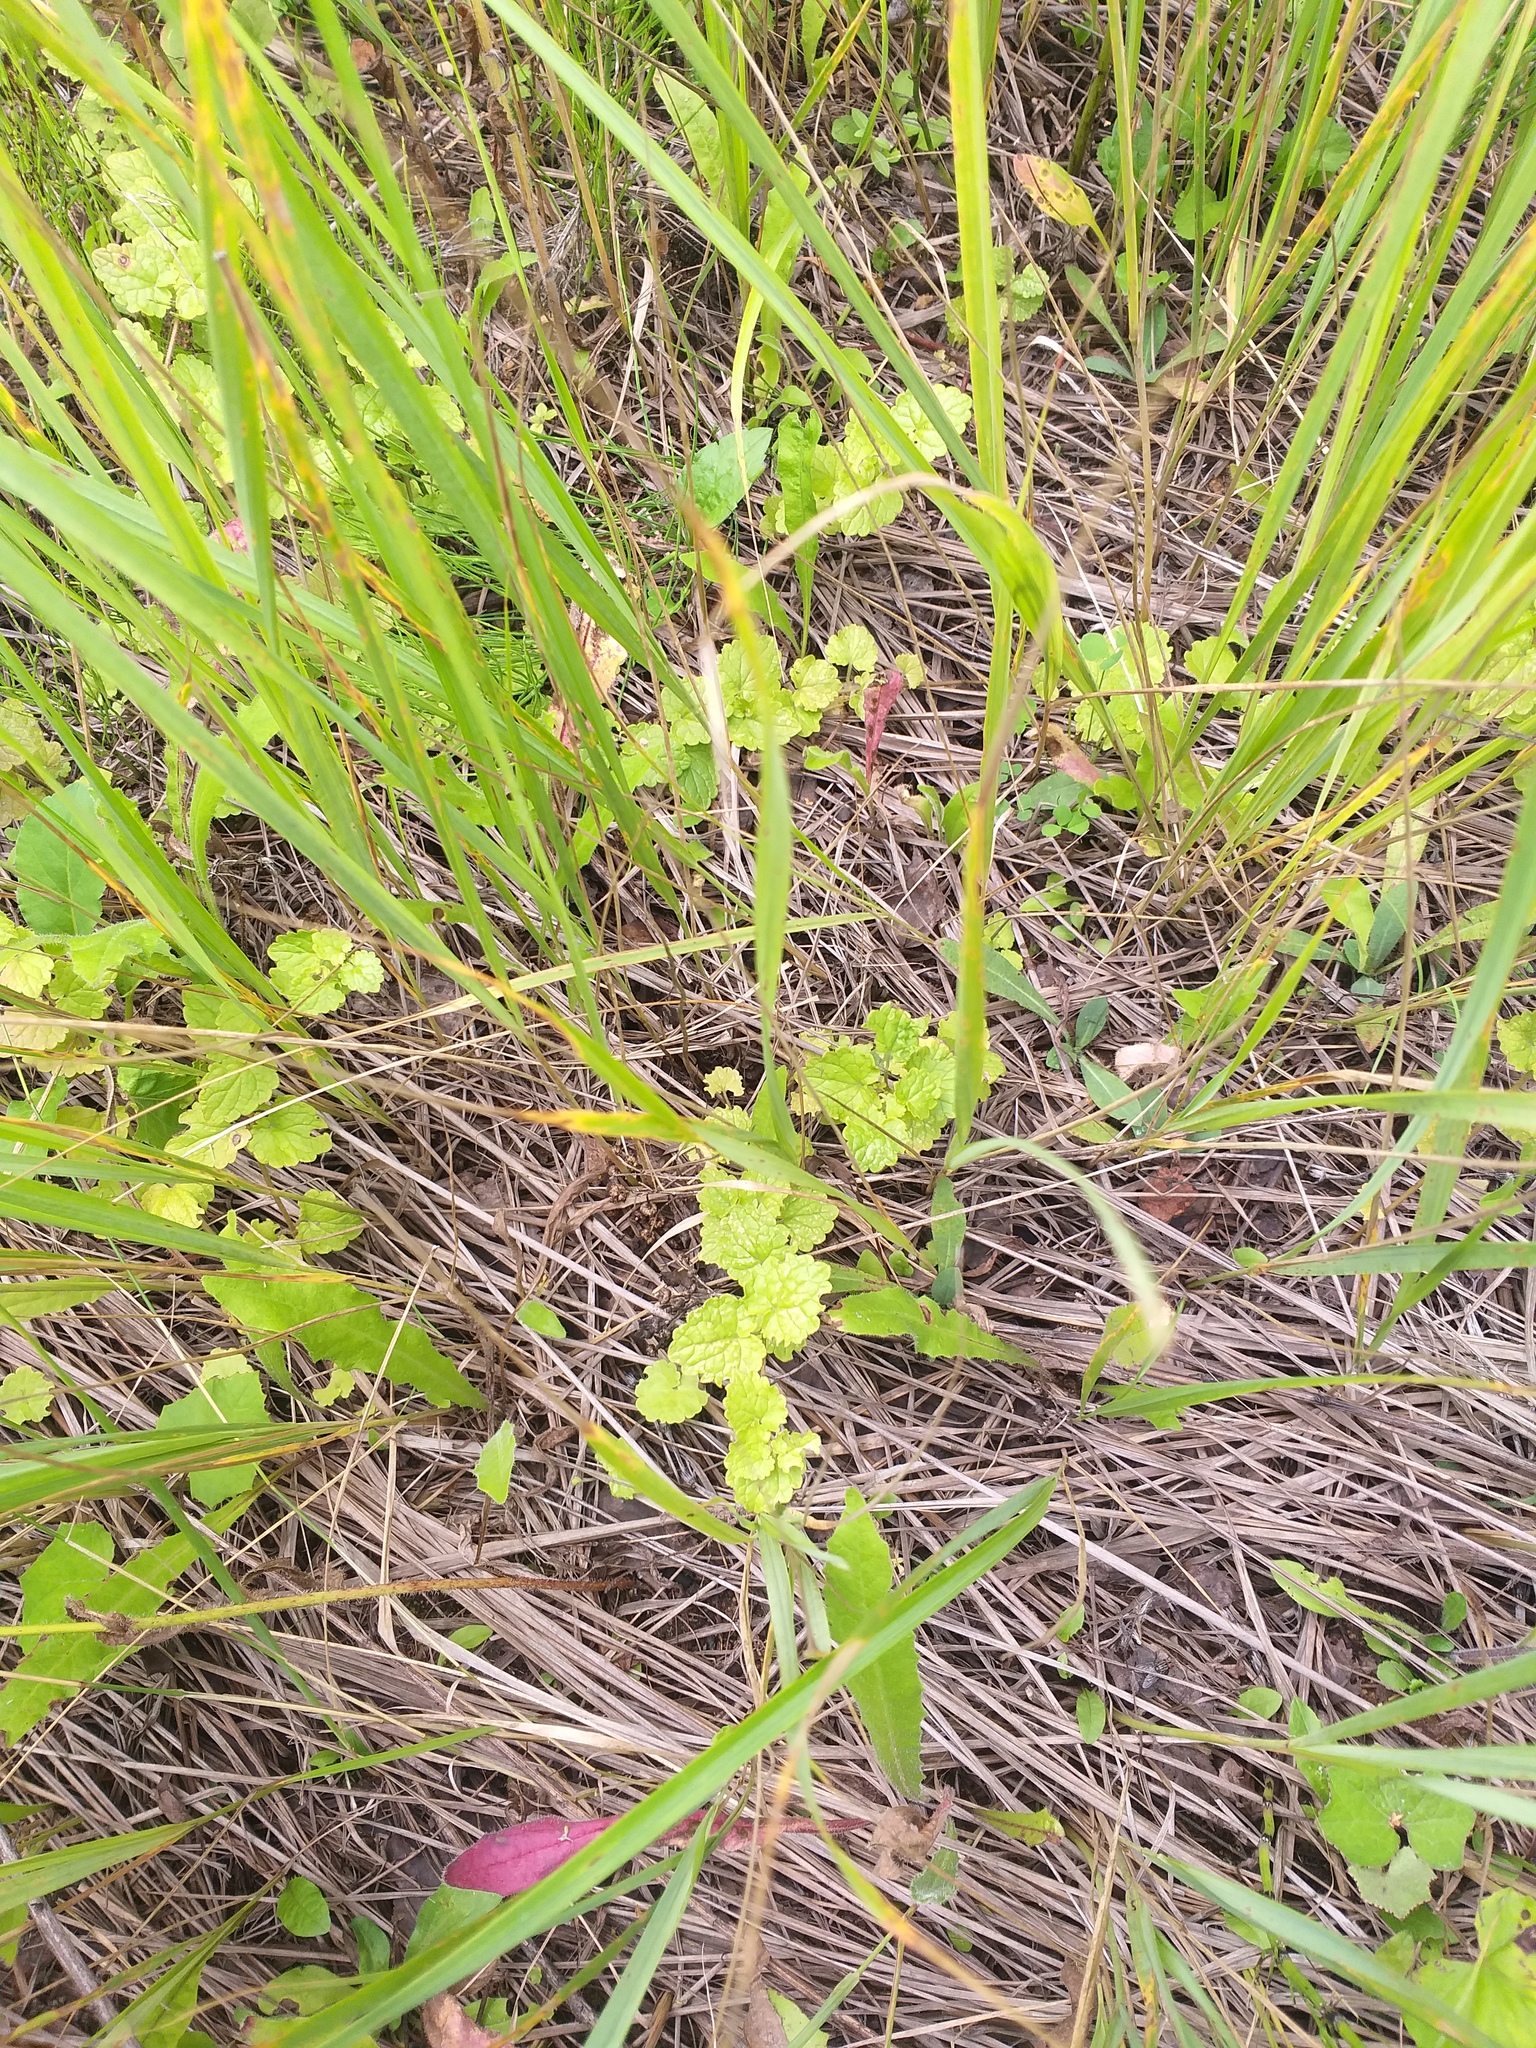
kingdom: Plantae
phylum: Tracheophyta
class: Magnoliopsida
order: Lamiales
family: Lamiaceae
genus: Glechoma
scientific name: Glechoma hederacea
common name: Ground ivy
